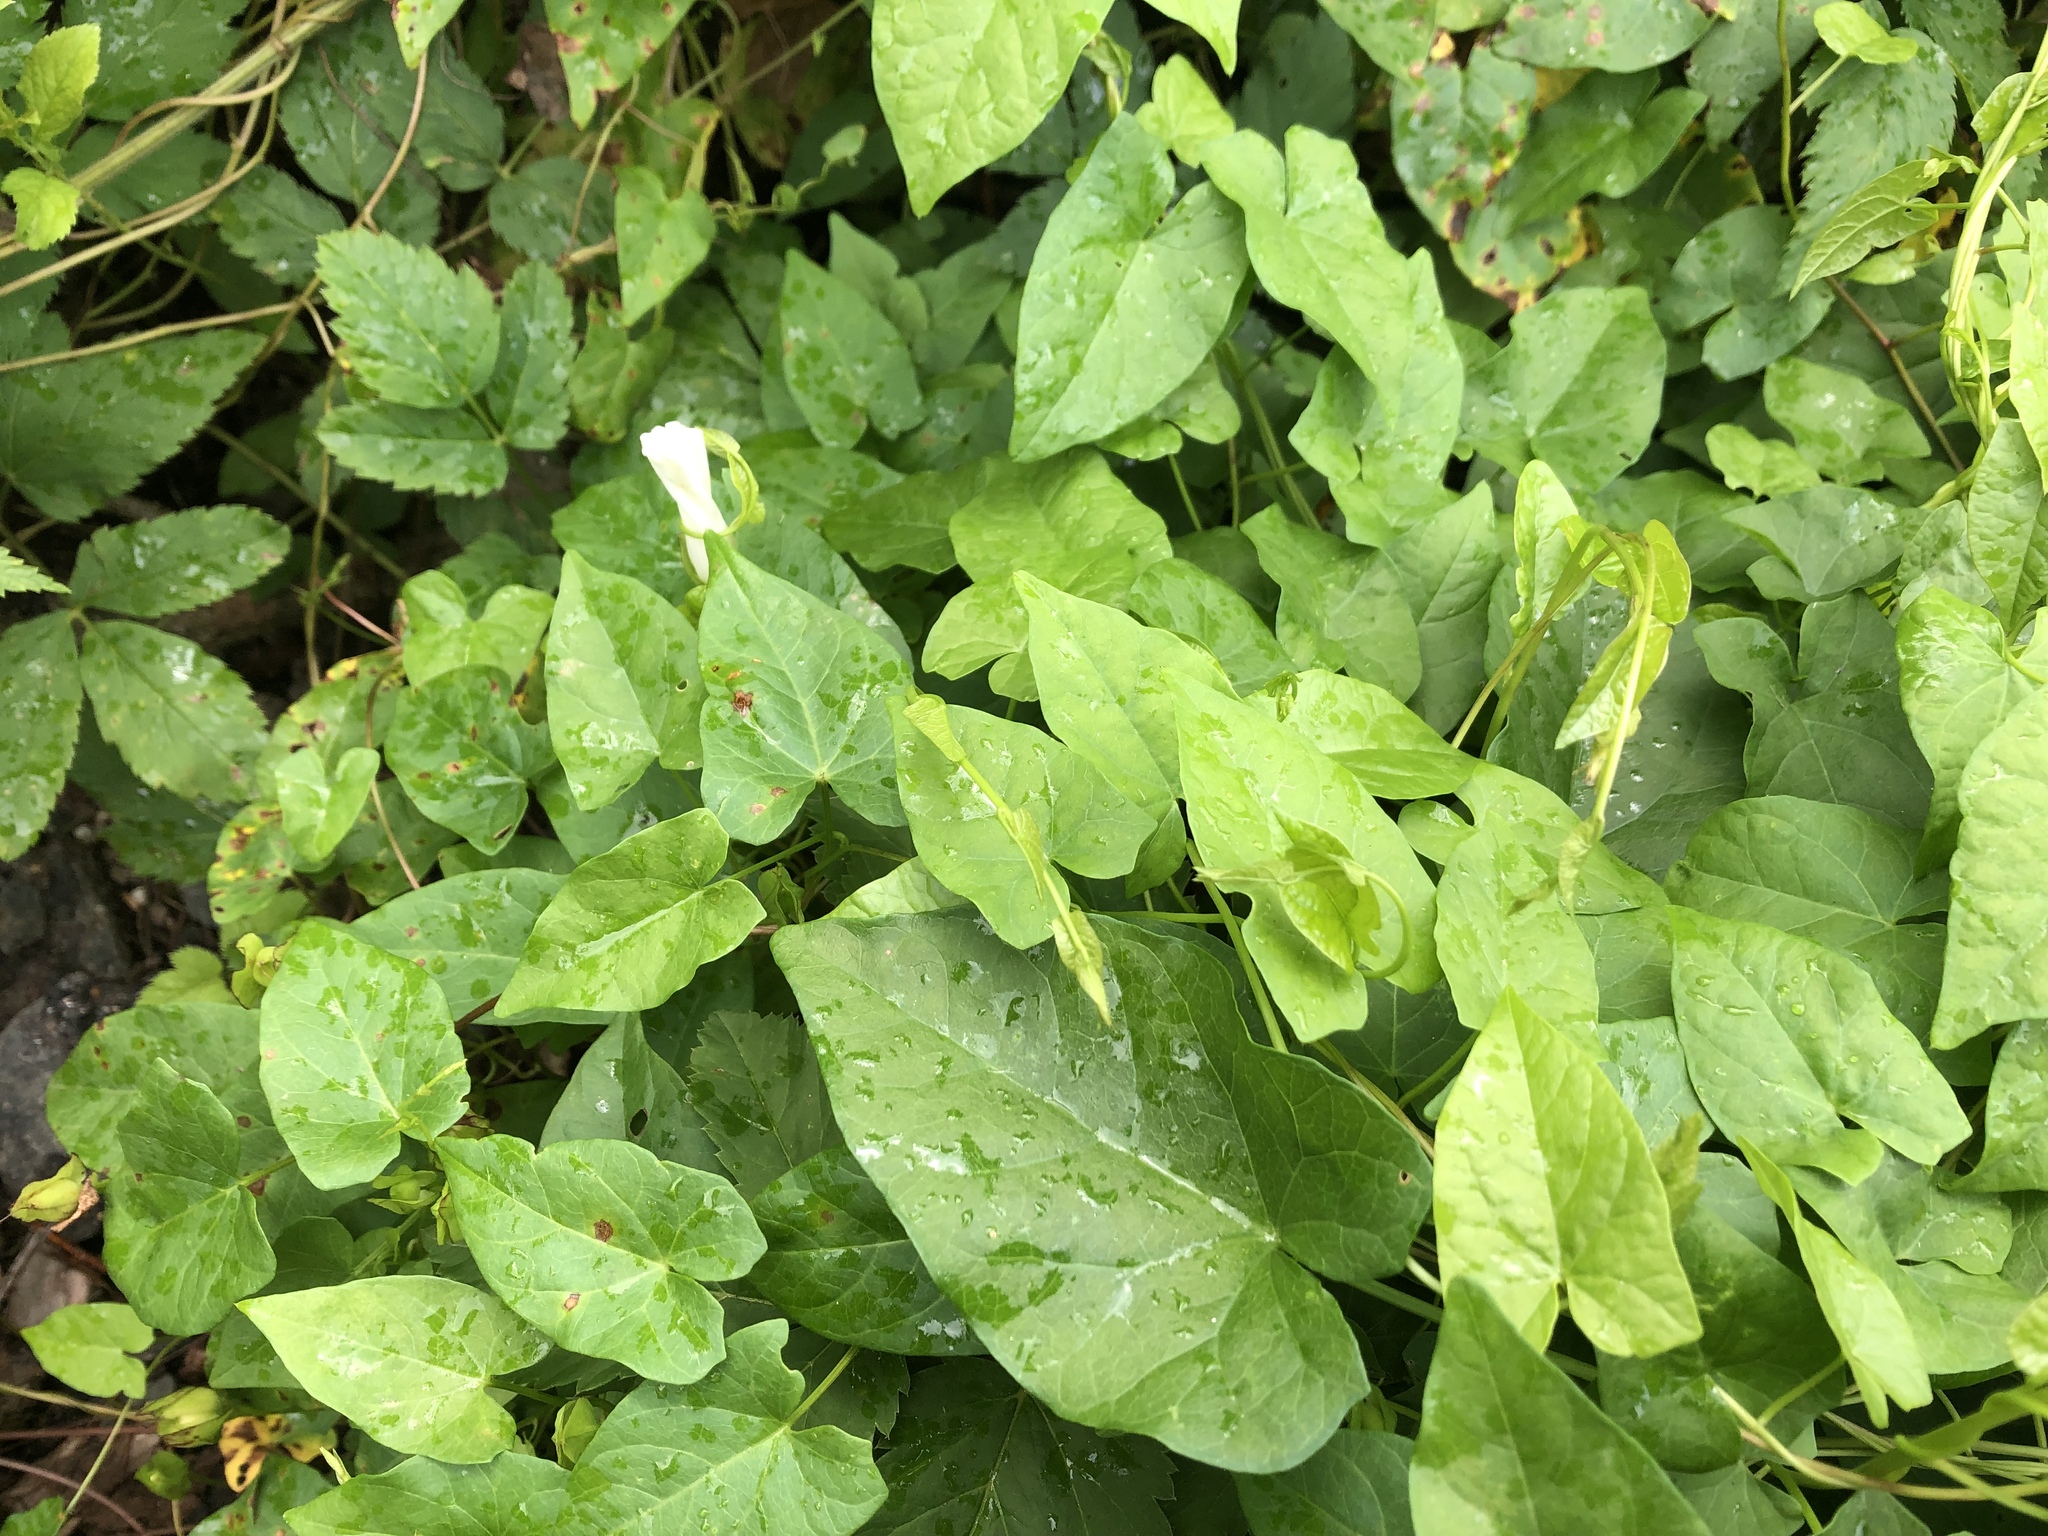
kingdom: Plantae
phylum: Tracheophyta
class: Magnoliopsida
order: Solanales
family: Convolvulaceae
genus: Calystegia
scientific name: Calystegia sepium
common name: Hedge bindweed
